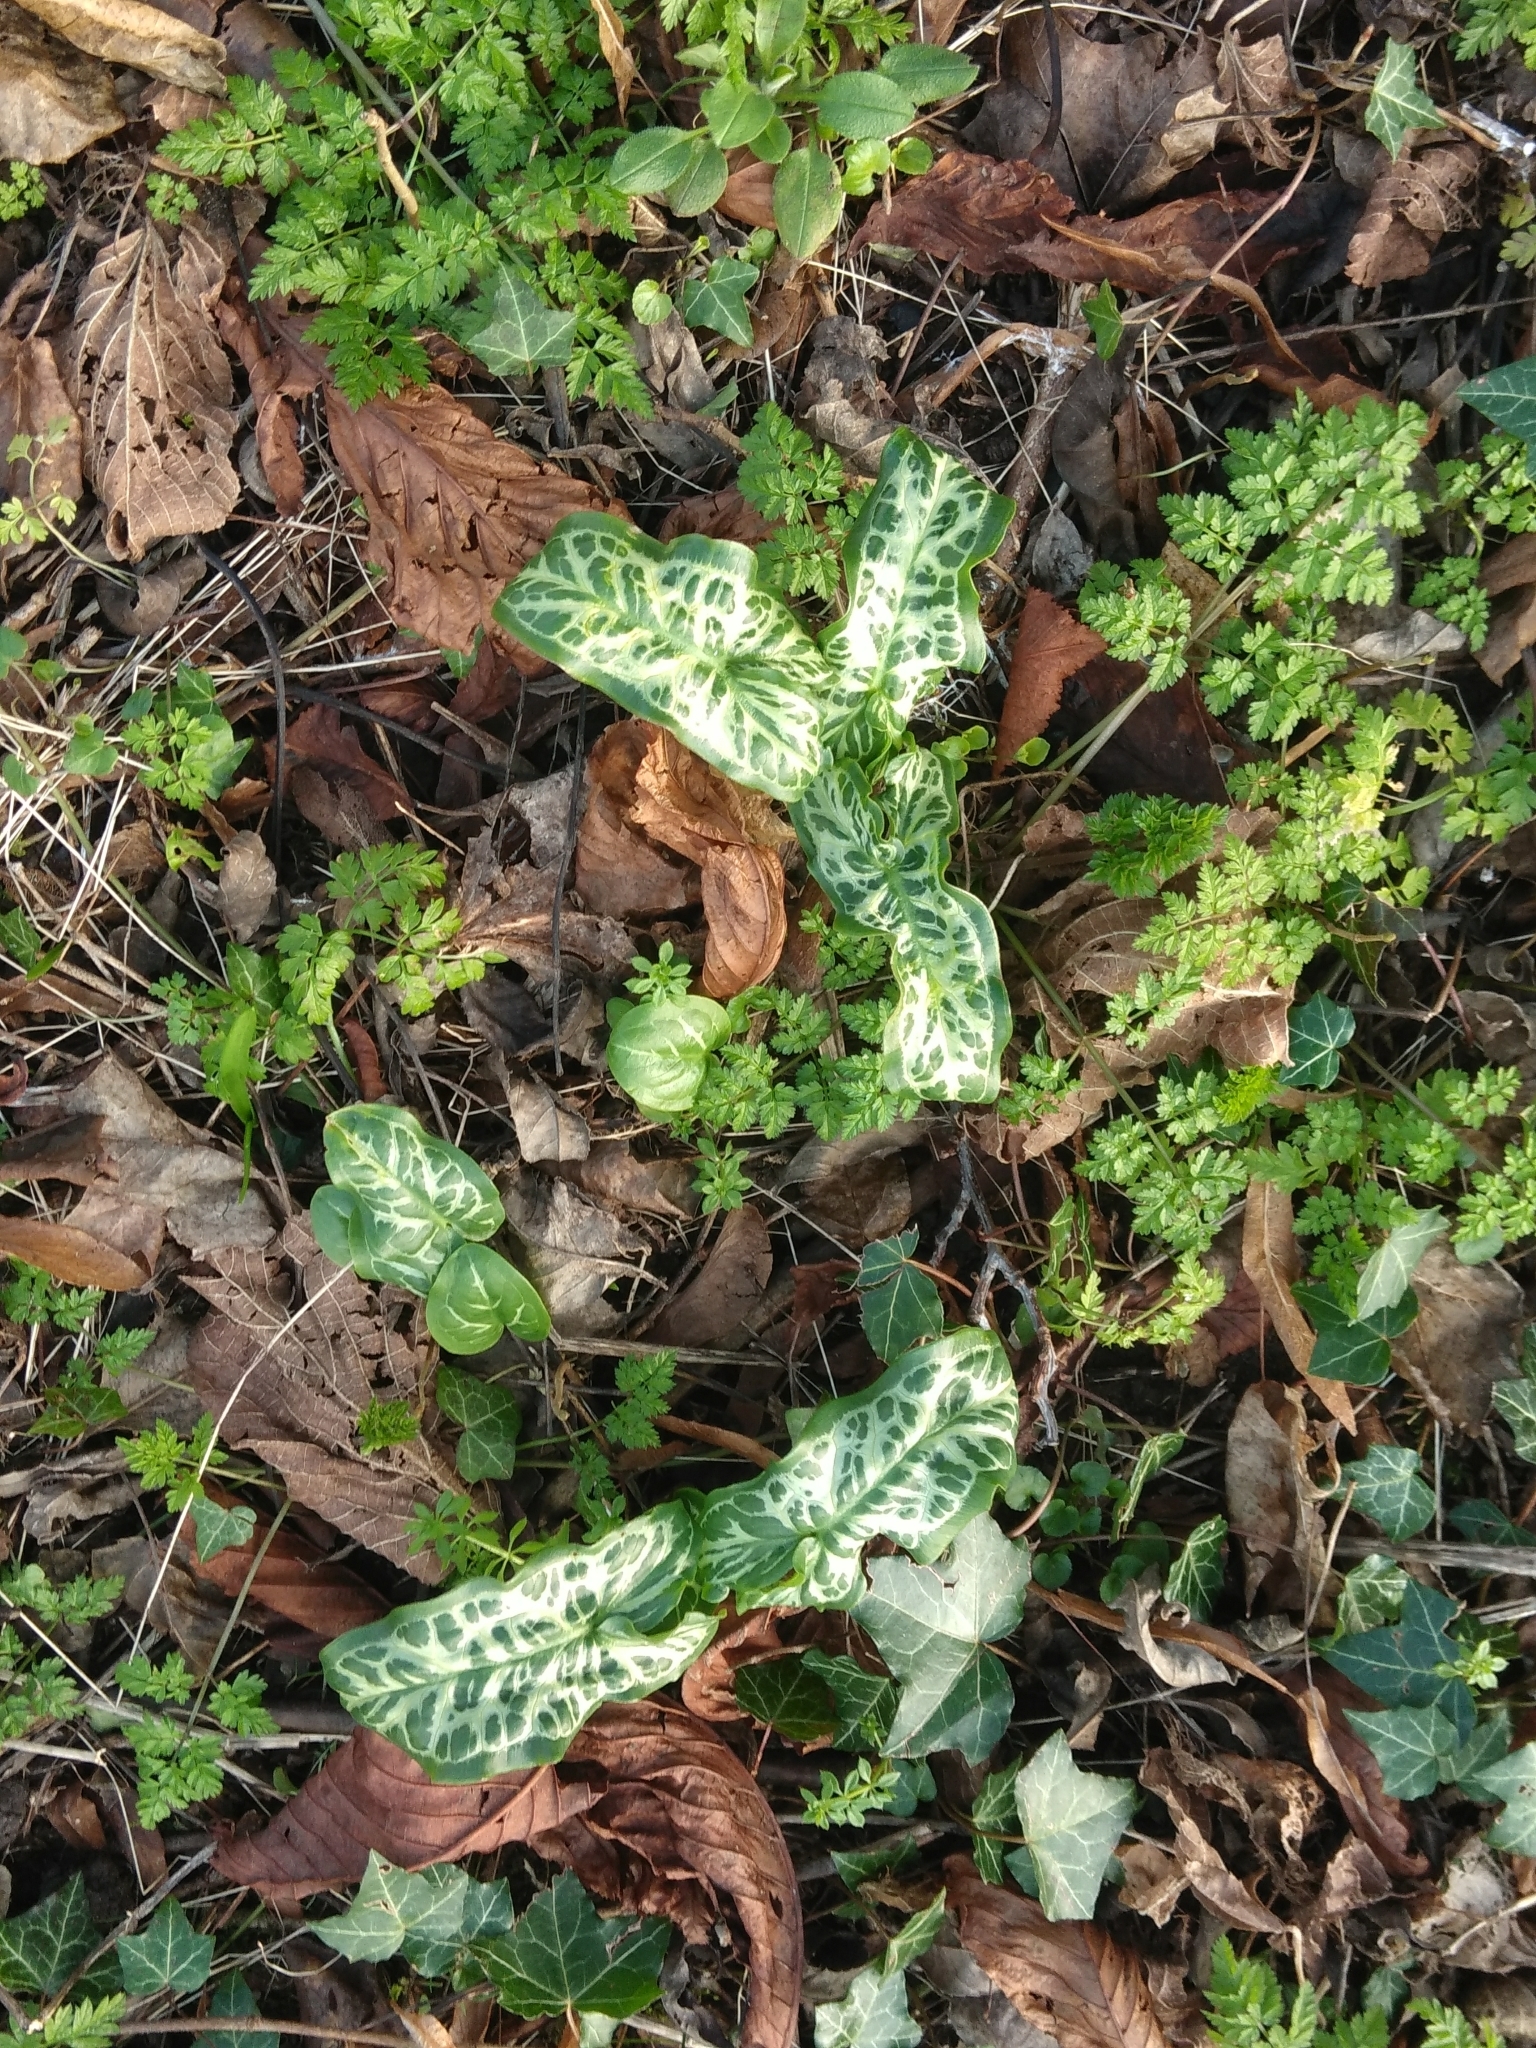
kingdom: Plantae
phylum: Tracheophyta
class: Liliopsida
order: Alismatales
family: Araceae
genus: Arum
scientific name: Arum italicum
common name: Italian lords-and-ladies
